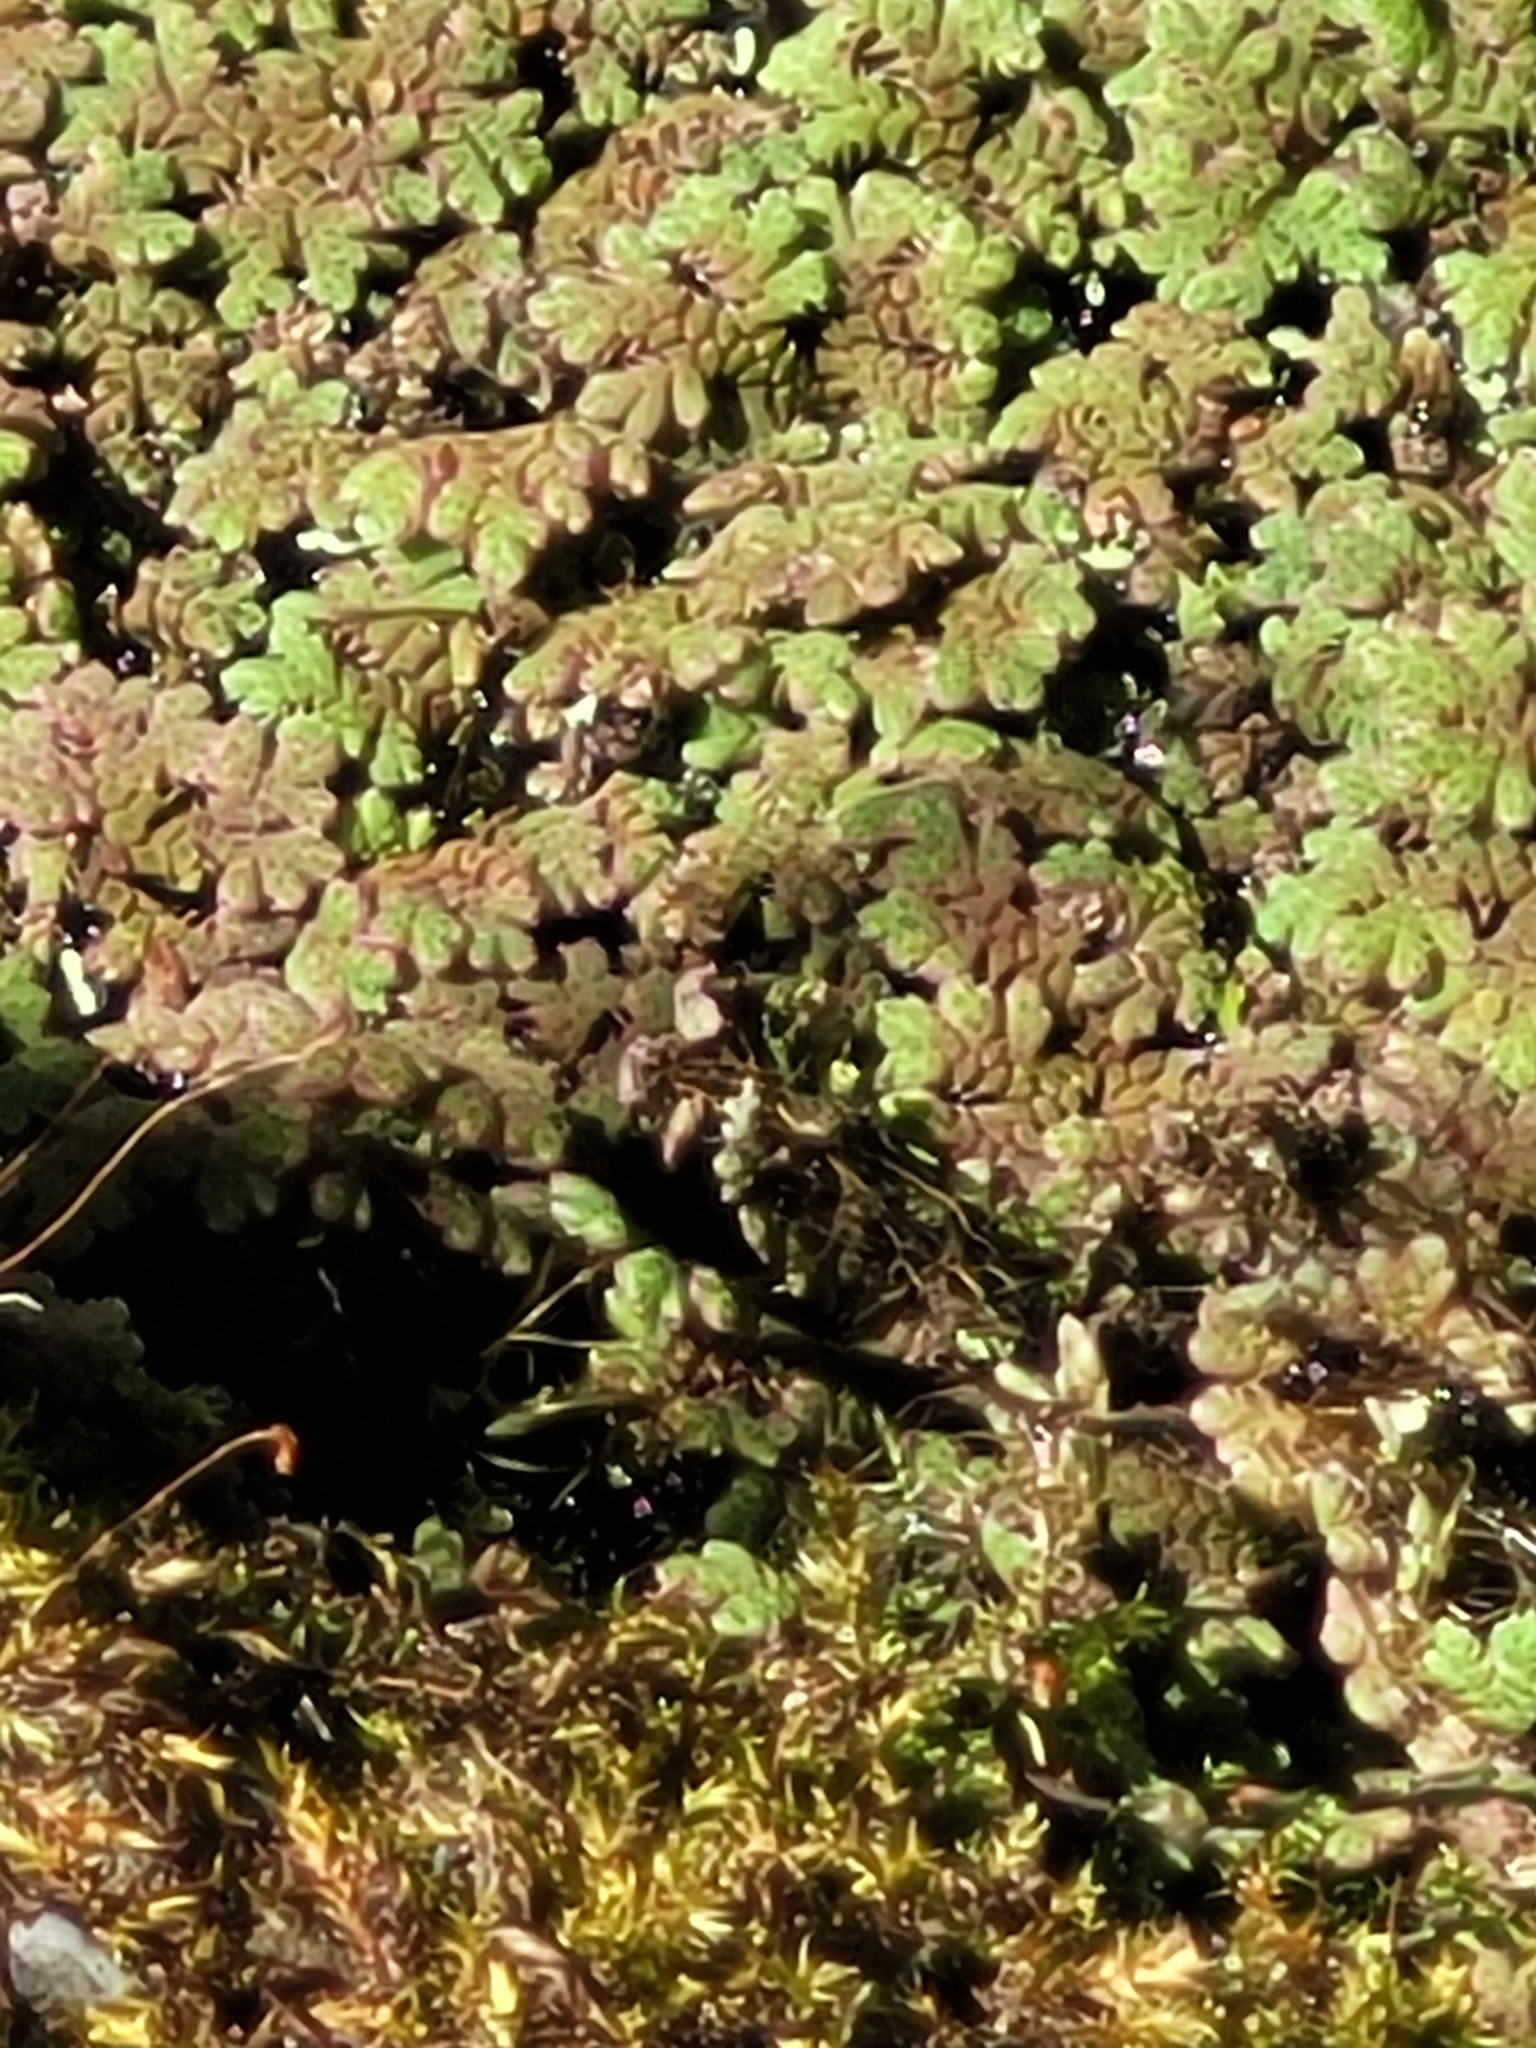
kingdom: Plantae
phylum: Tracheophyta
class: Polypodiopsida
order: Salviniales
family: Salviniaceae
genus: Azolla
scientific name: Azolla rubra
